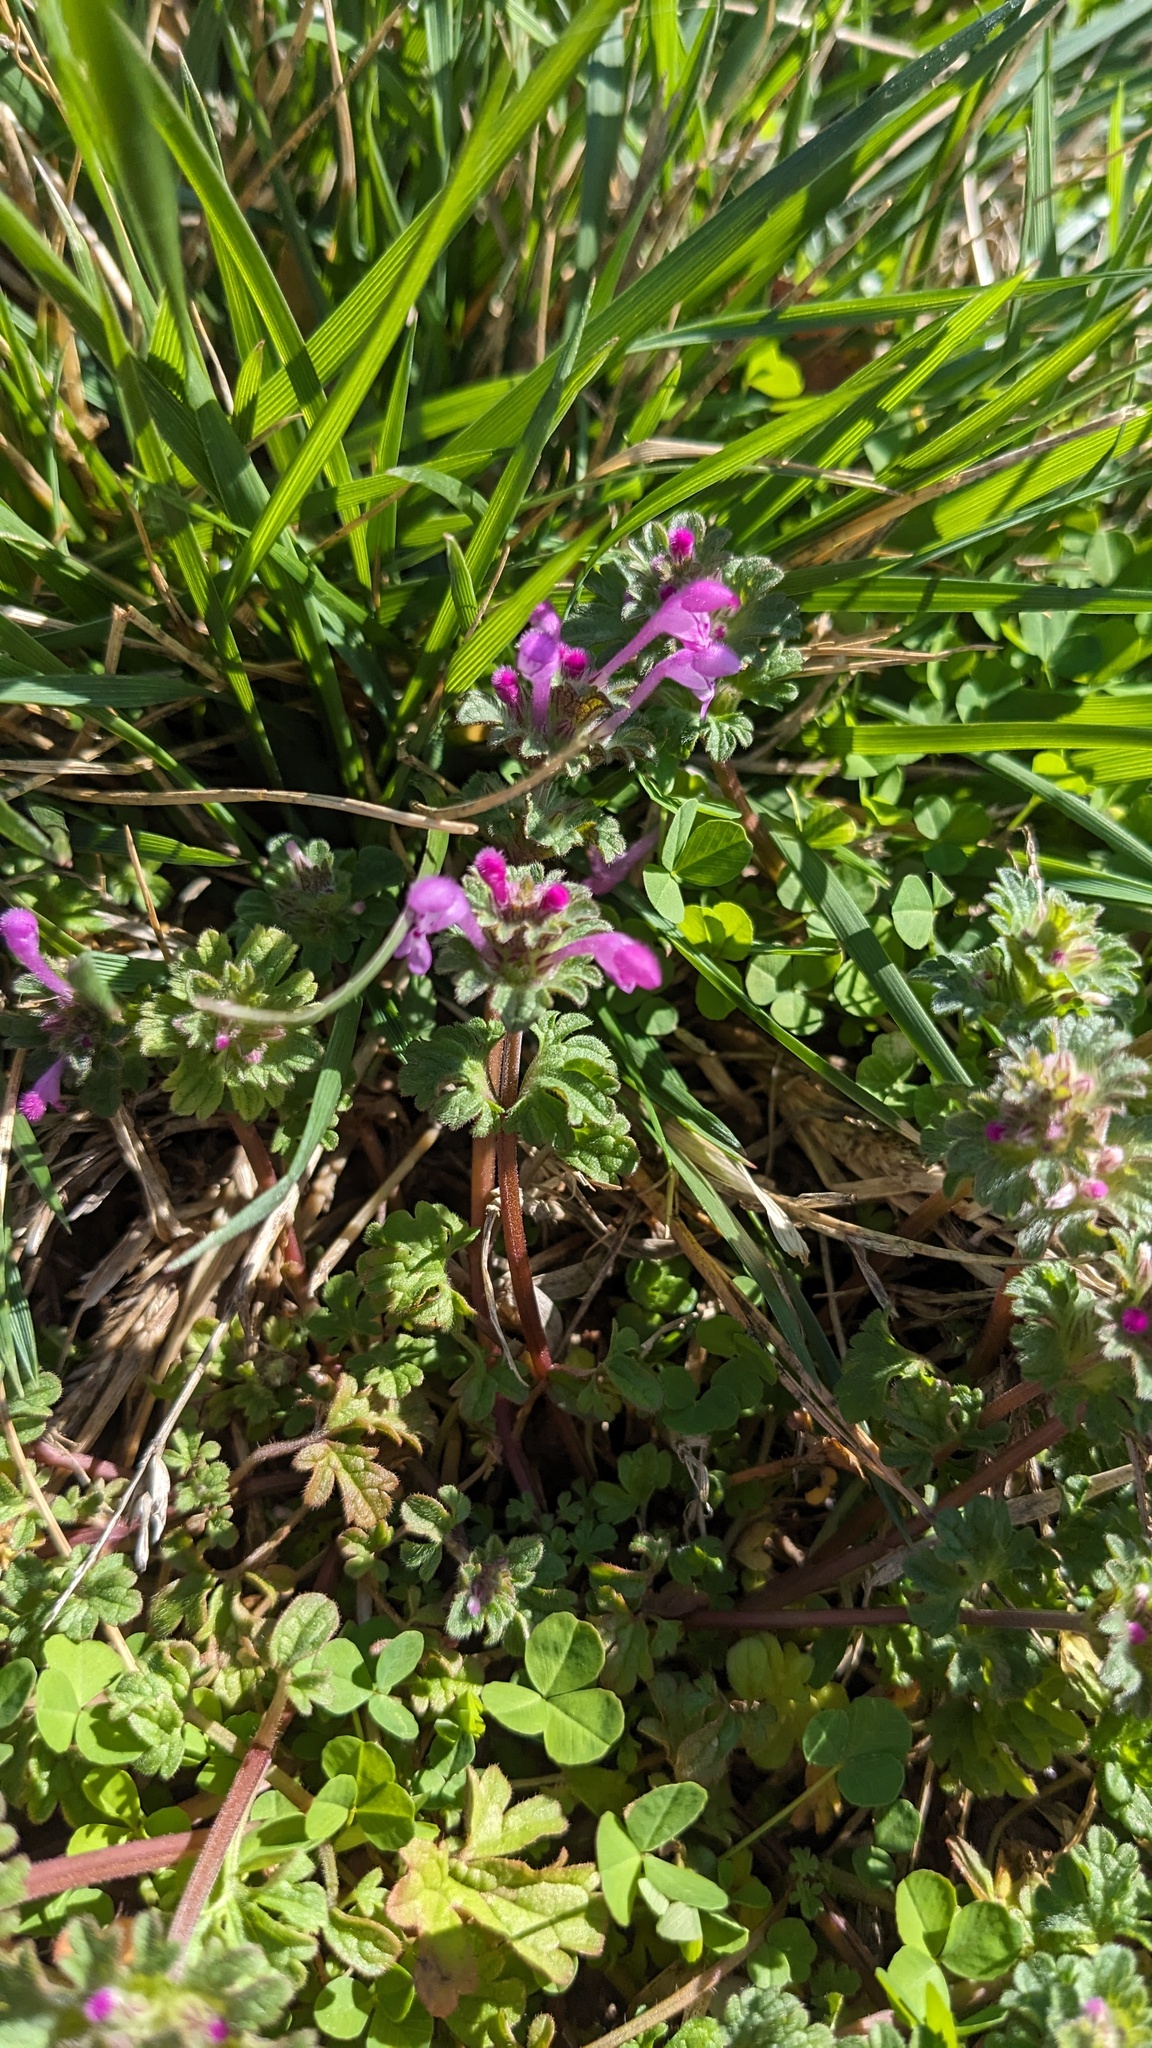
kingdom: Plantae
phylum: Tracheophyta
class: Magnoliopsida
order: Lamiales
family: Lamiaceae
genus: Lamium
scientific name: Lamium amplexicaule
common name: Henbit dead-nettle
